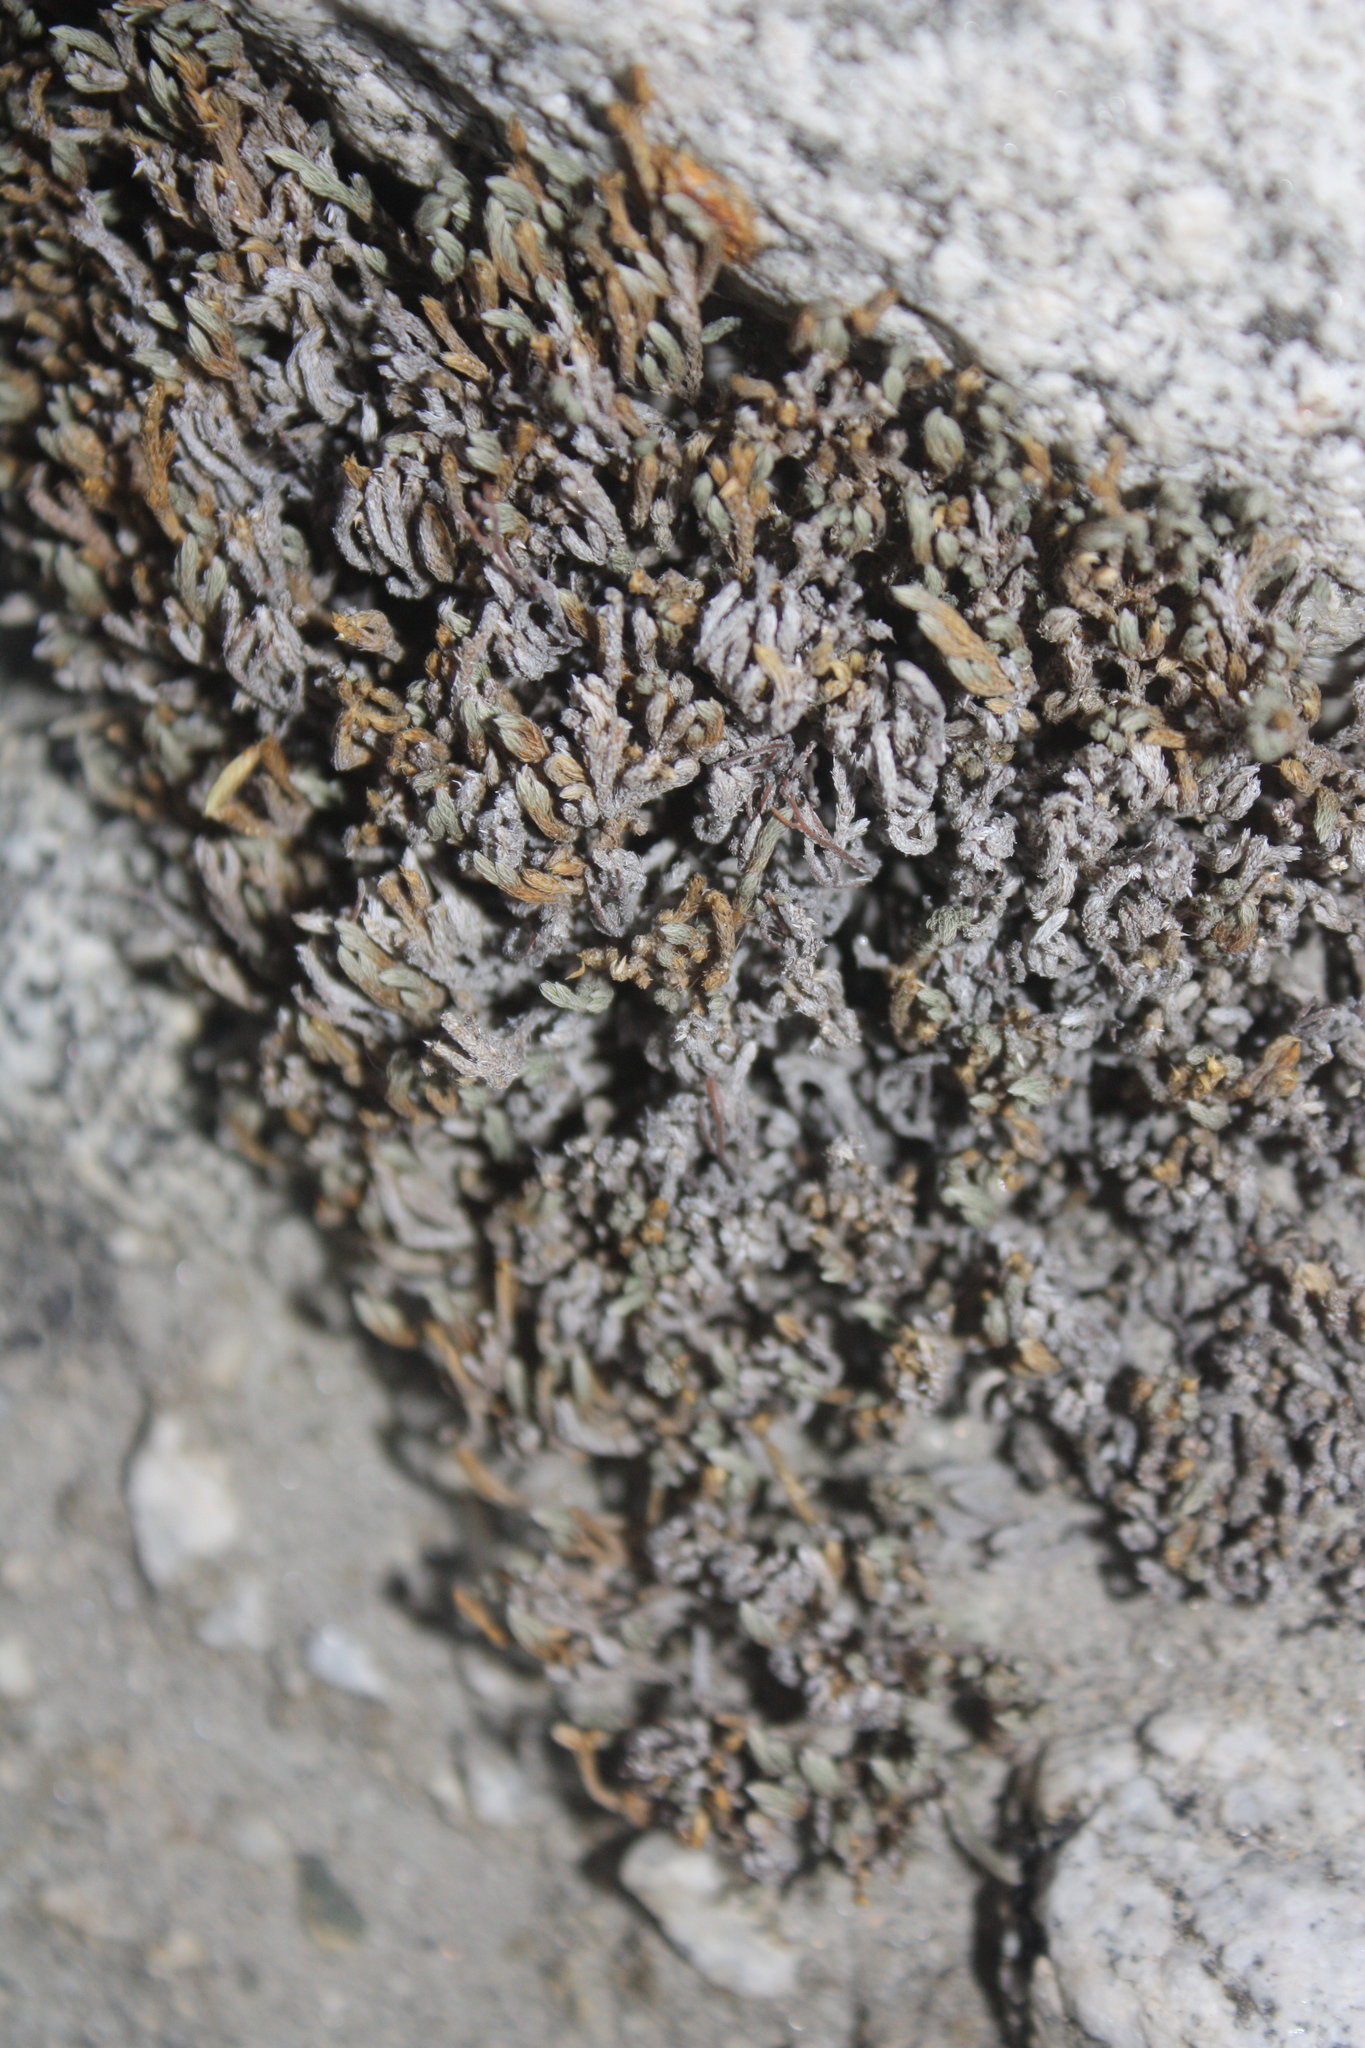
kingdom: Plantae
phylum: Tracheophyta
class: Lycopodiopsida
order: Selaginellales
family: Selaginellaceae
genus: Selaginella
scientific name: Selaginella bigelovii
